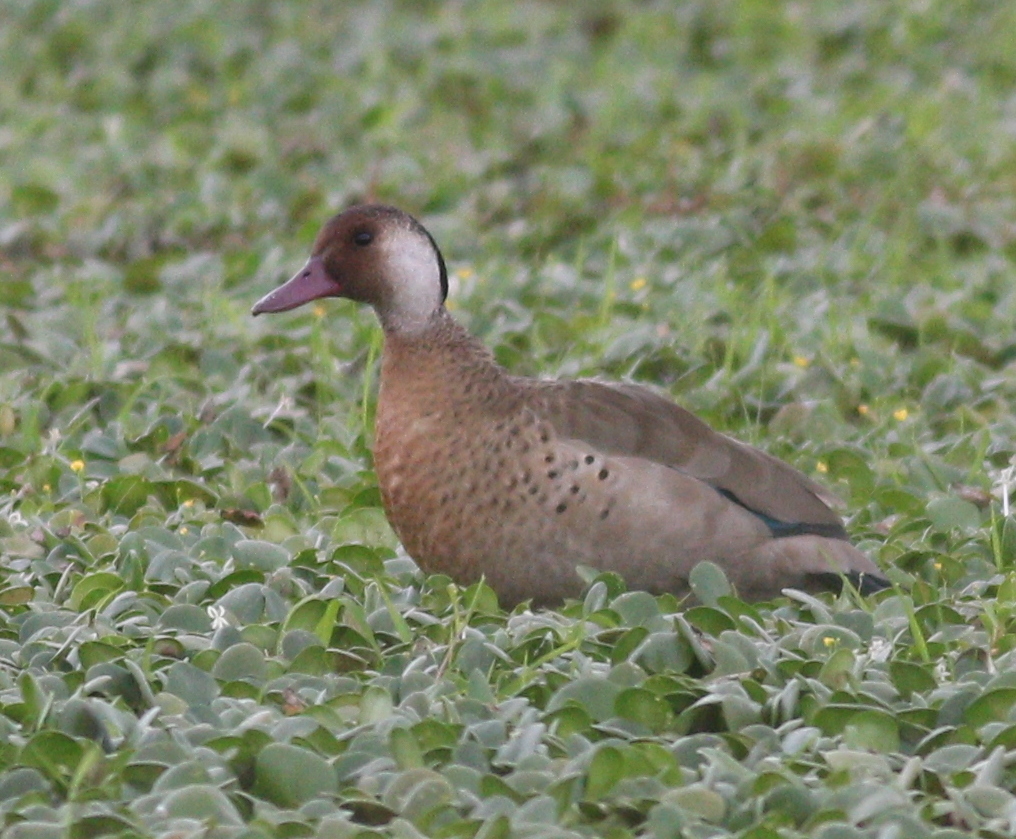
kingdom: Animalia
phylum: Chordata
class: Aves
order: Anseriformes
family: Anatidae
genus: Amazonetta
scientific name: Amazonetta brasiliensis
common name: Brazilian teal
